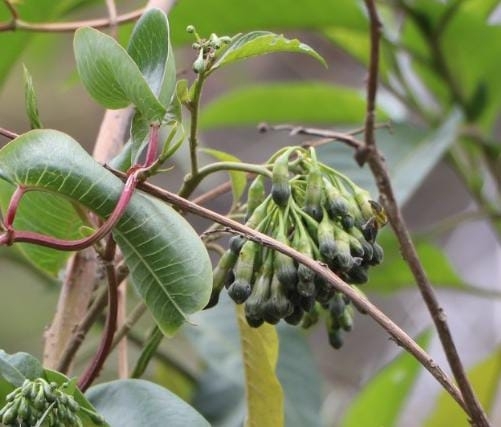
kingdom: Plantae
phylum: Tracheophyta
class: Magnoliopsida
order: Solanales
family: Solanaceae
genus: Trozelia
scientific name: Trozelia umbellata
